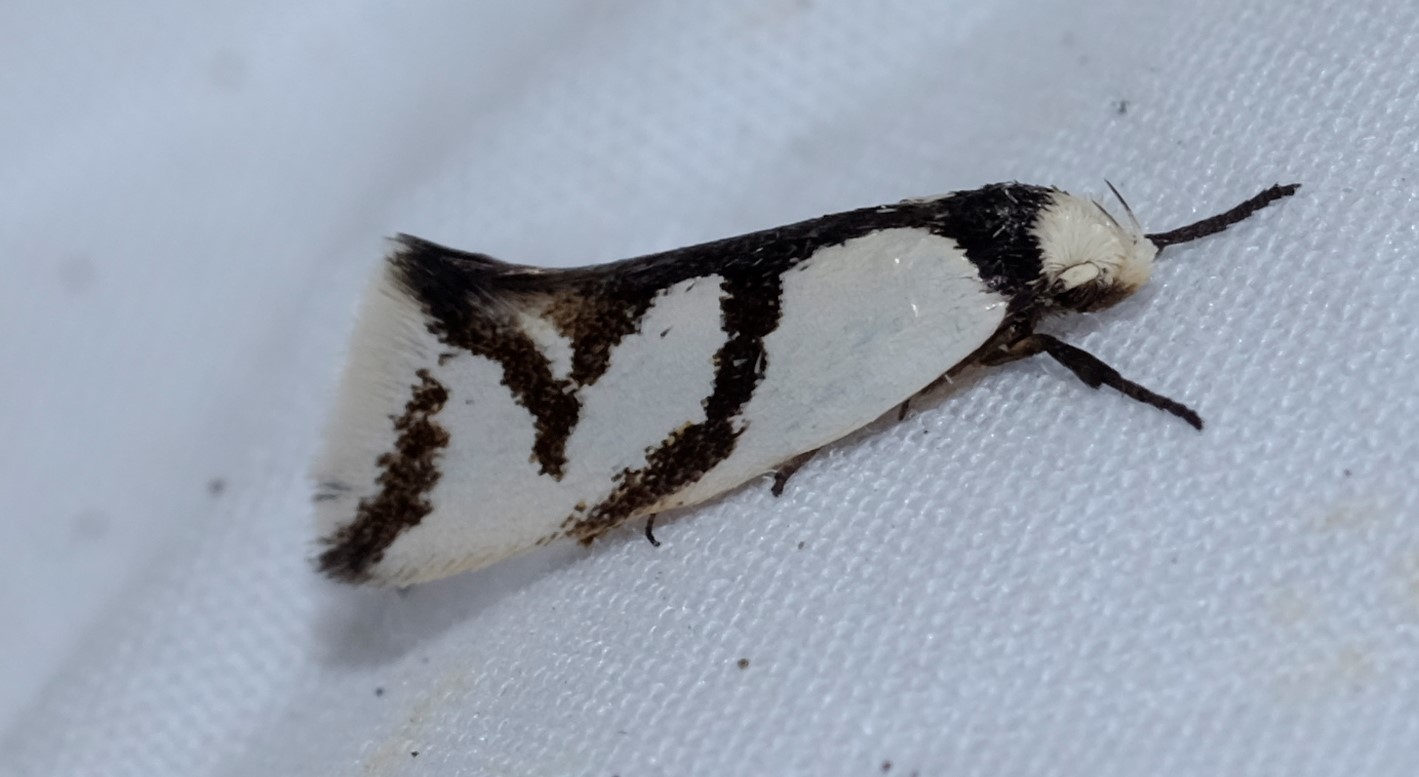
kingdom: Animalia
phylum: Arthropoda
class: Insecta
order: Lepidoptera
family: Oecophoridae
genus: Ocystola
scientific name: Ocystola paulinella
